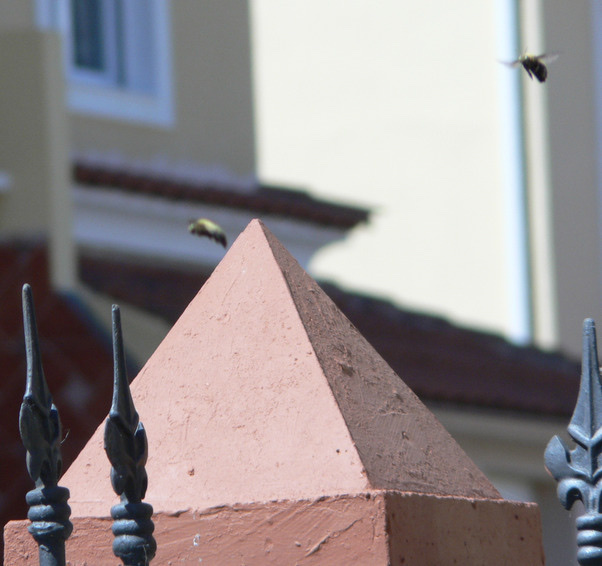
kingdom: Animalia
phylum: Arthropoda
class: Insecta
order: Hymenoptera
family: Apidae
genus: Xylocopa
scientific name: Xylocopa pubescens
